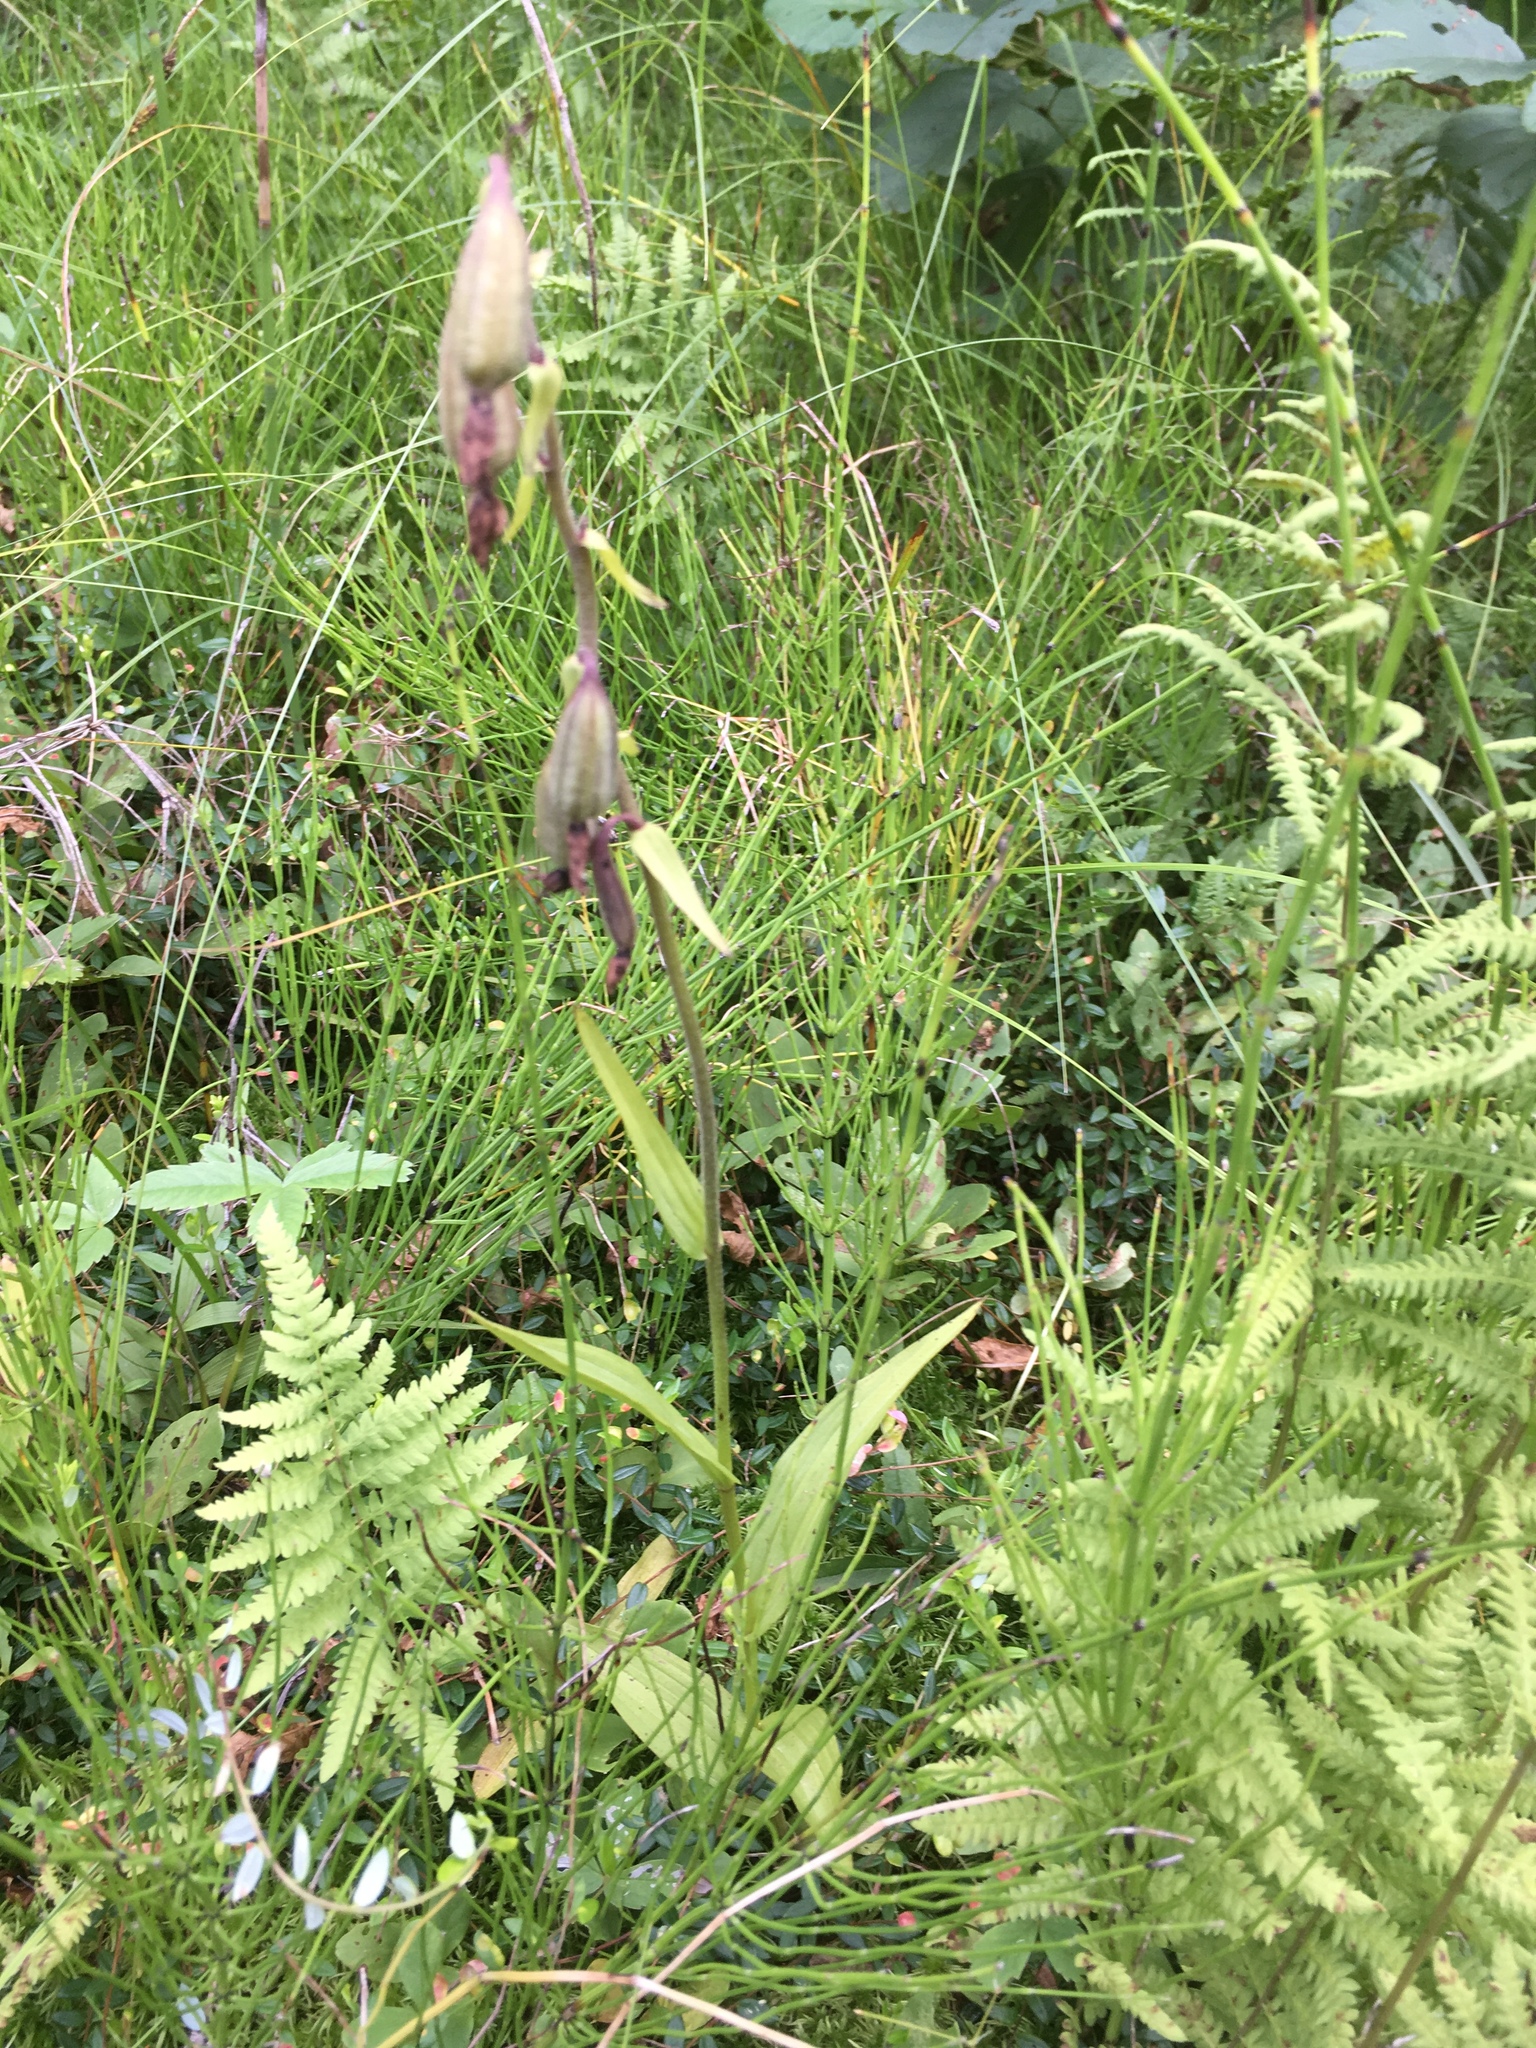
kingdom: Plantae
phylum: Tracheophyta
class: Liliopsida
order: Asparagales
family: Orchidaceae
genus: Epipactis
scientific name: Epipactis palustris
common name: Marsh helleborine
